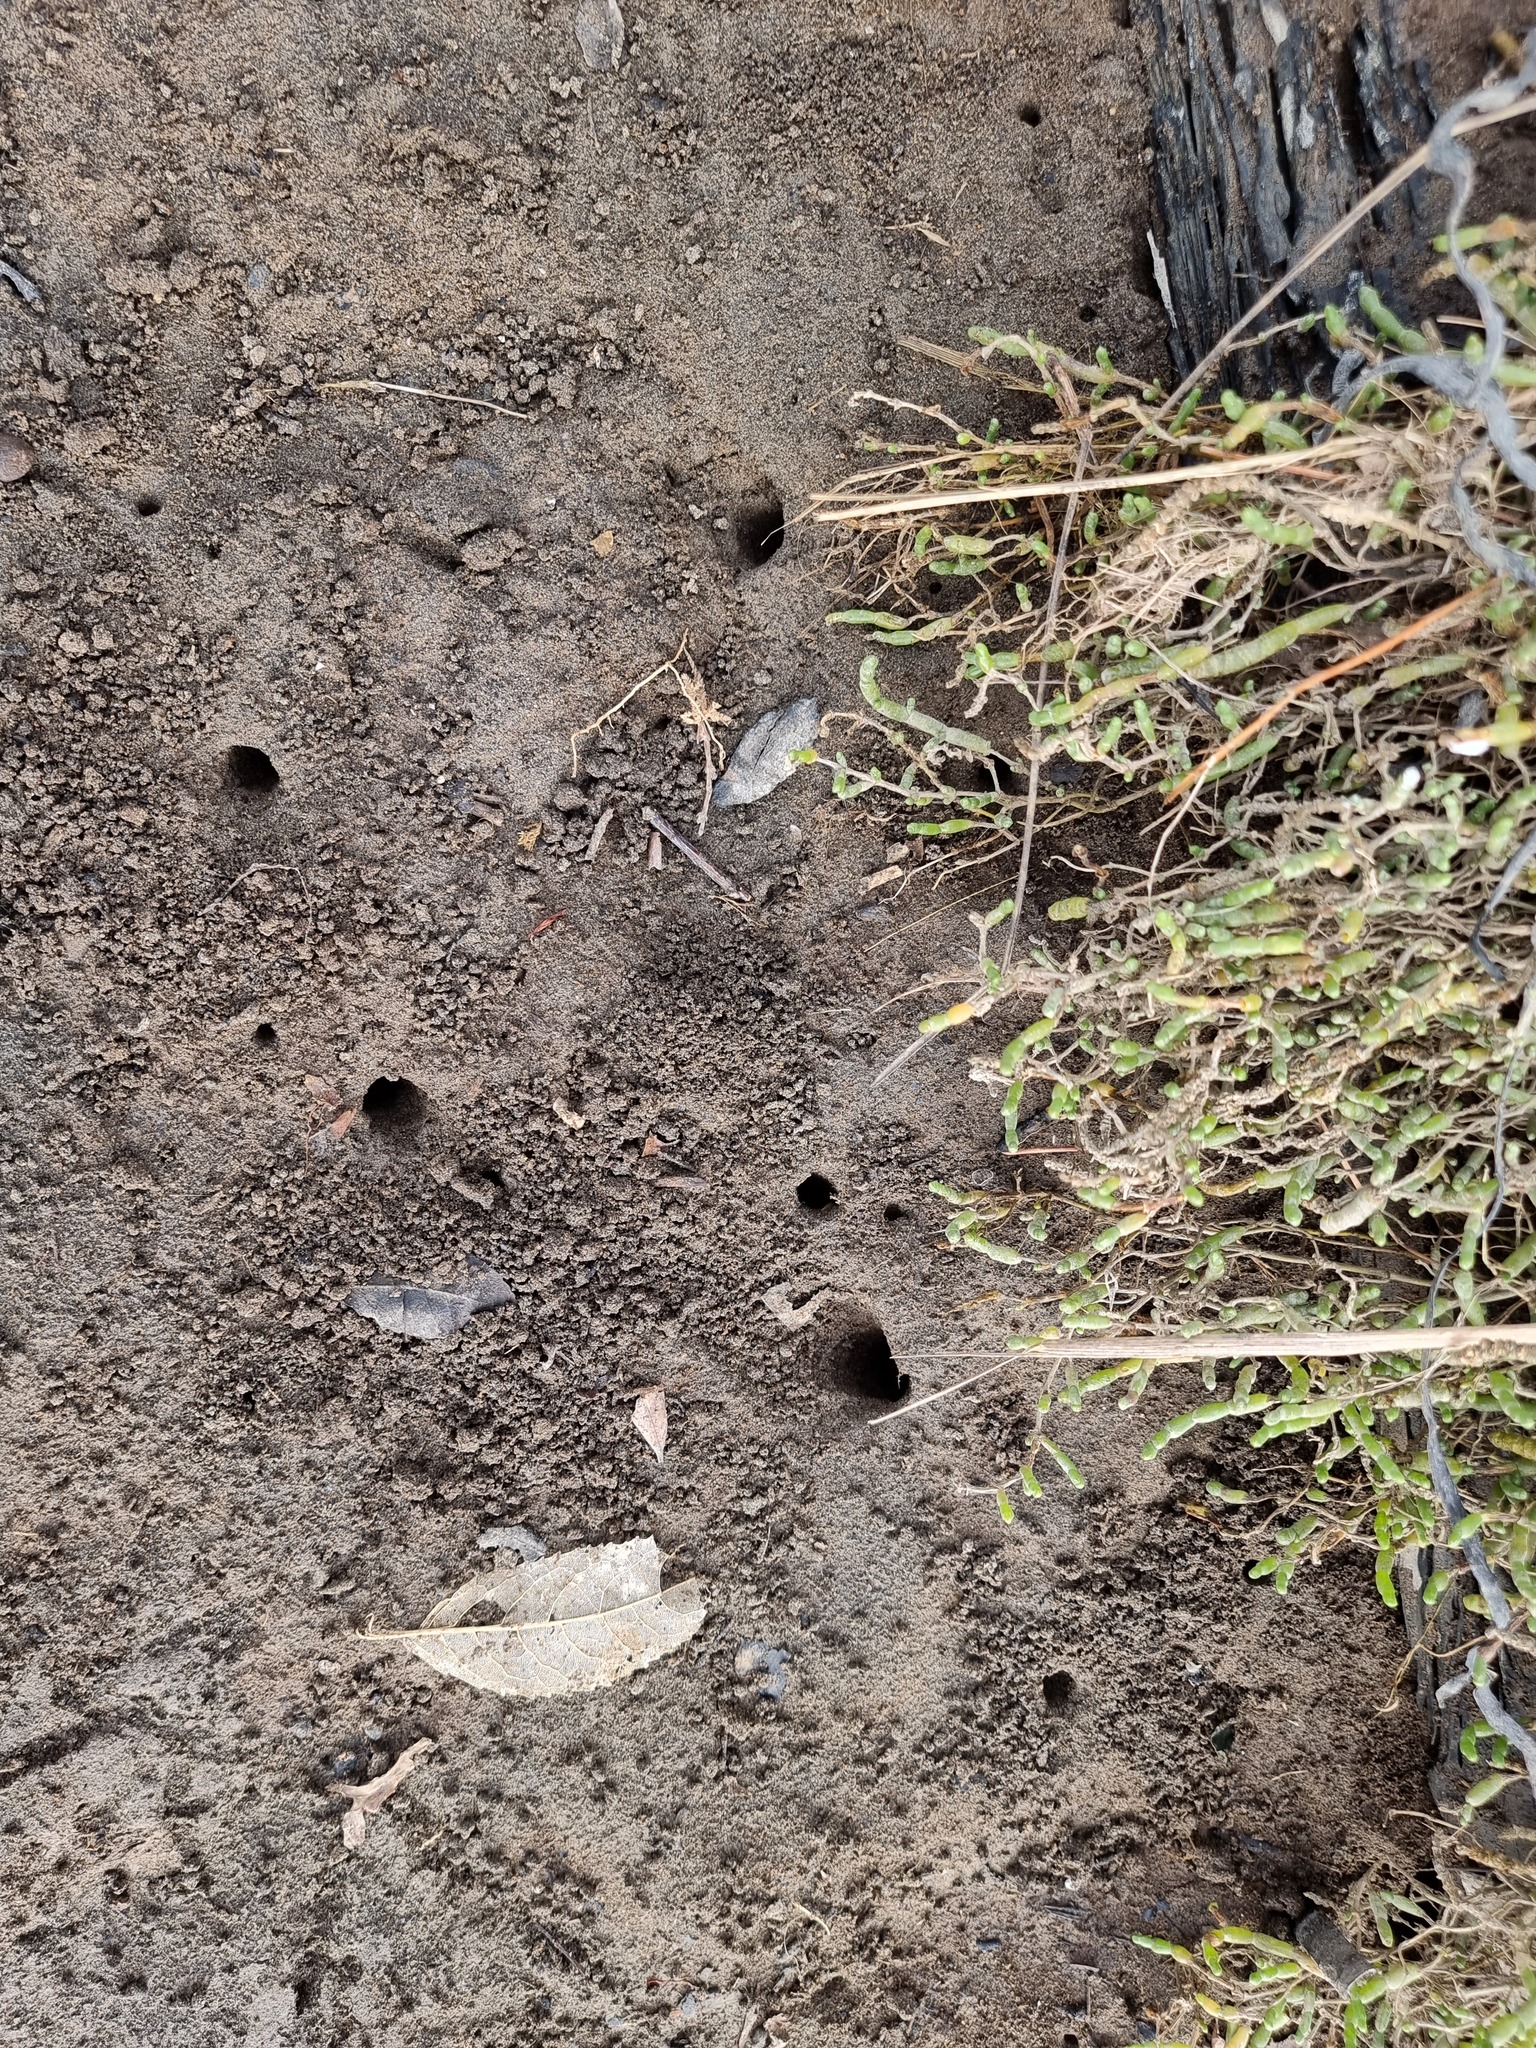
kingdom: Animalia
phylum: Arthropoda
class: Malacostraca
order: Decapoda
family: Varunidae
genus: Austrohelice
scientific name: Austrohelice crassa
